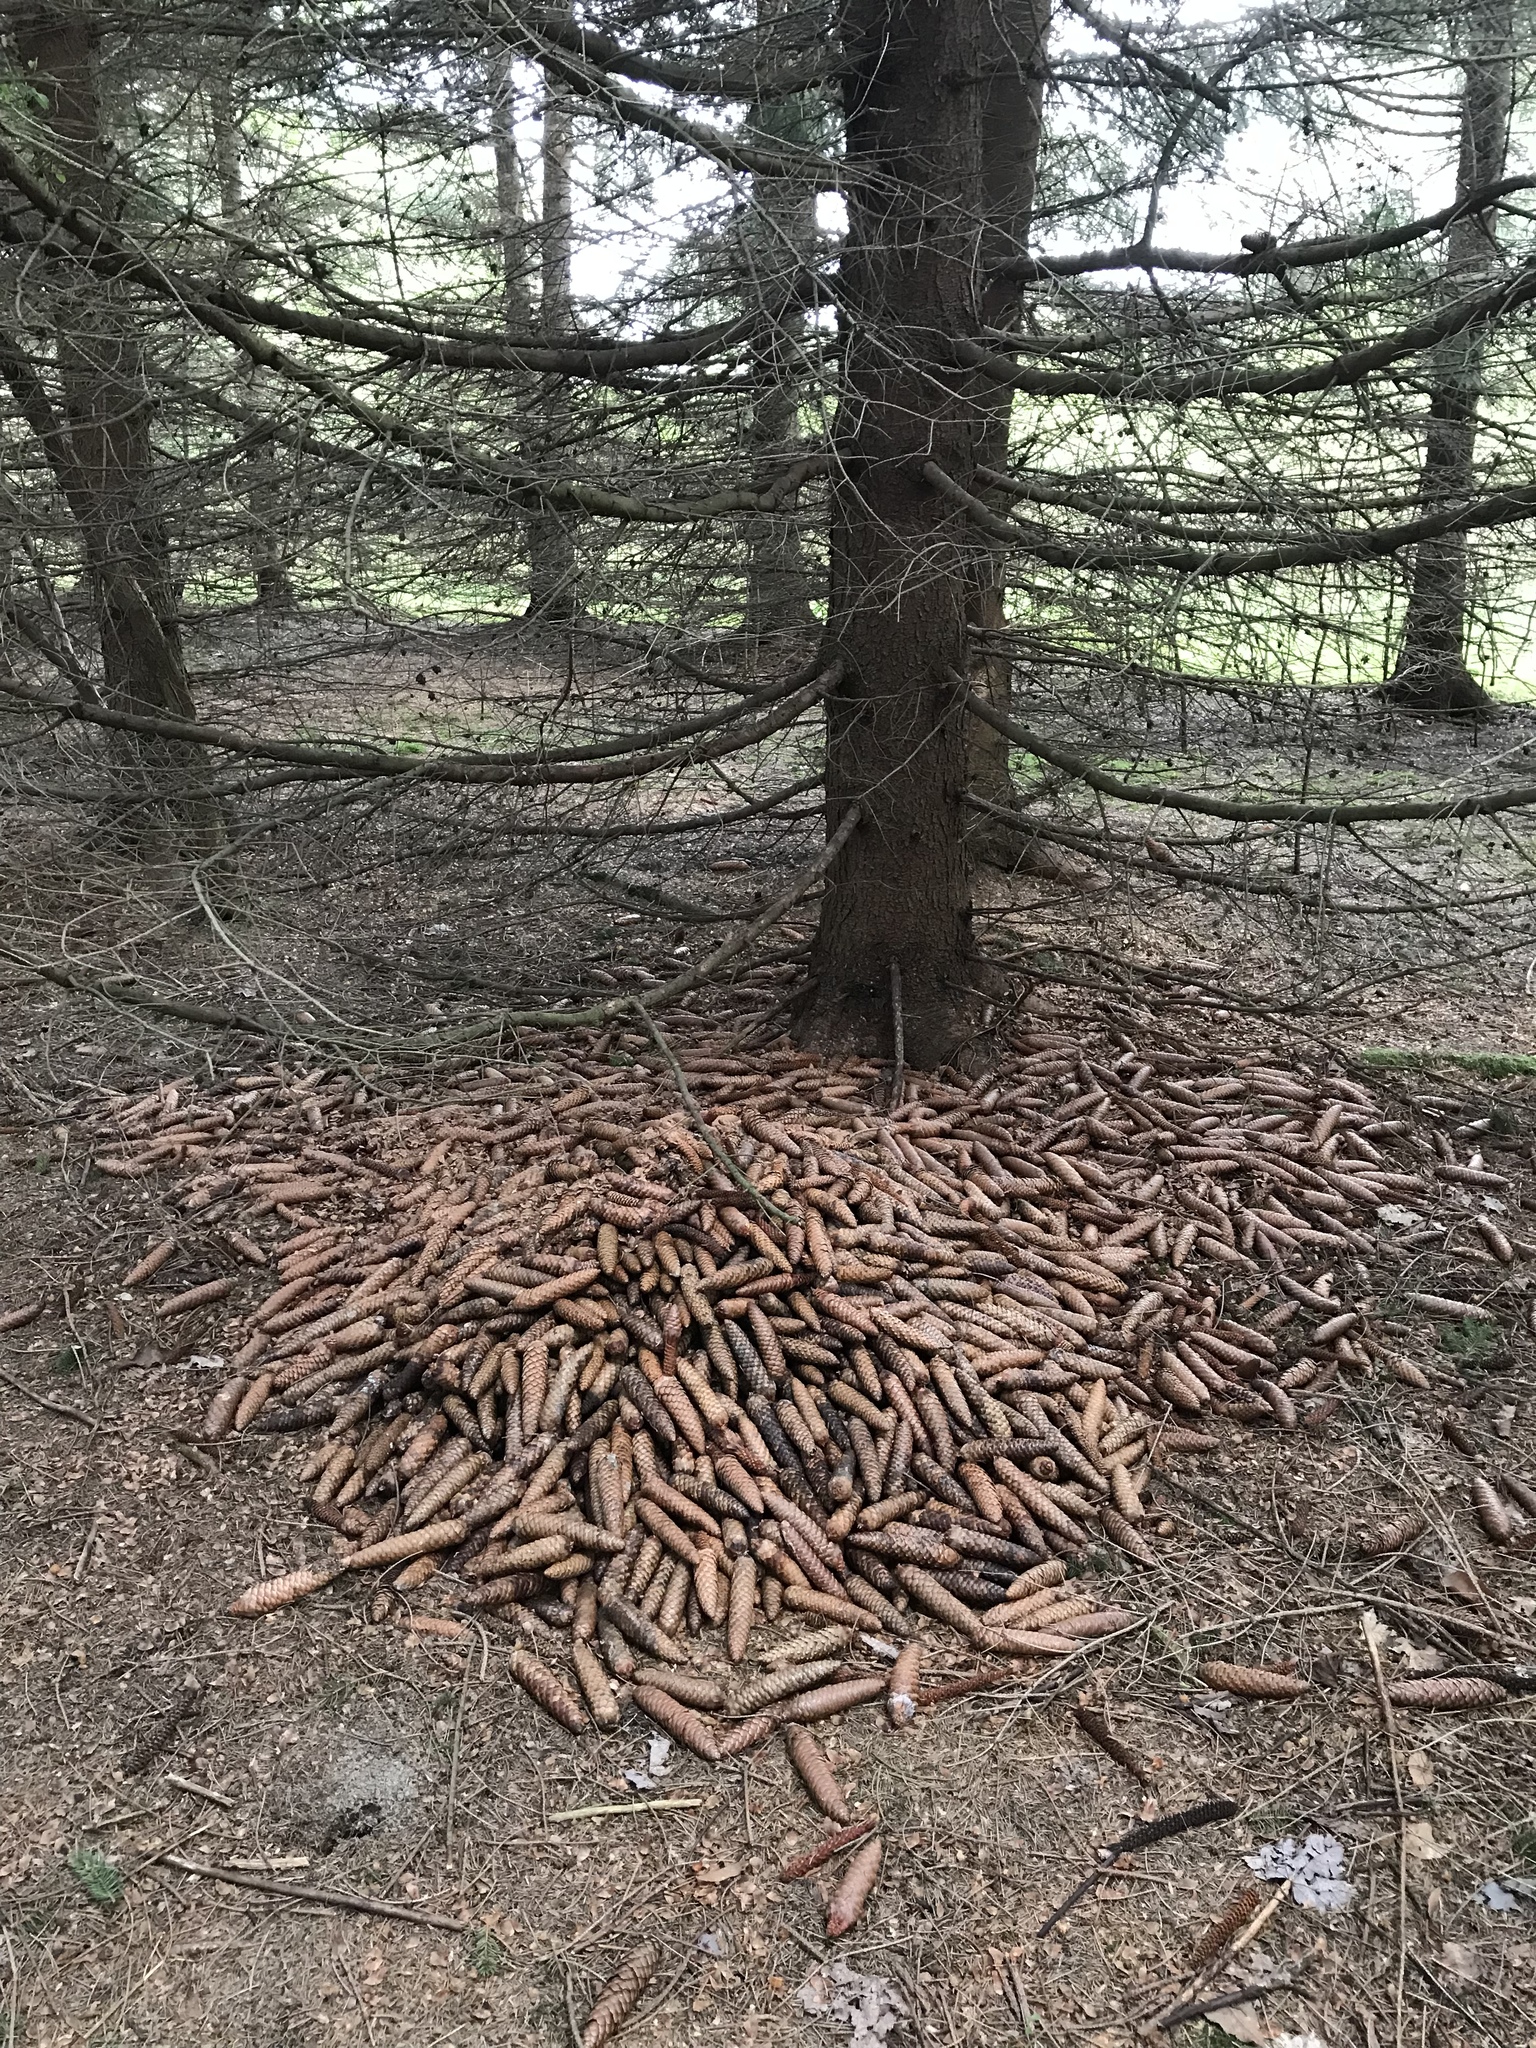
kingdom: Animalia
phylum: Chordata
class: Mammalia
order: Rodentia
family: Sciuridae
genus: Tamiasciurus
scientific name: Tamiasciurus hudsonicus
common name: Red squirrel
